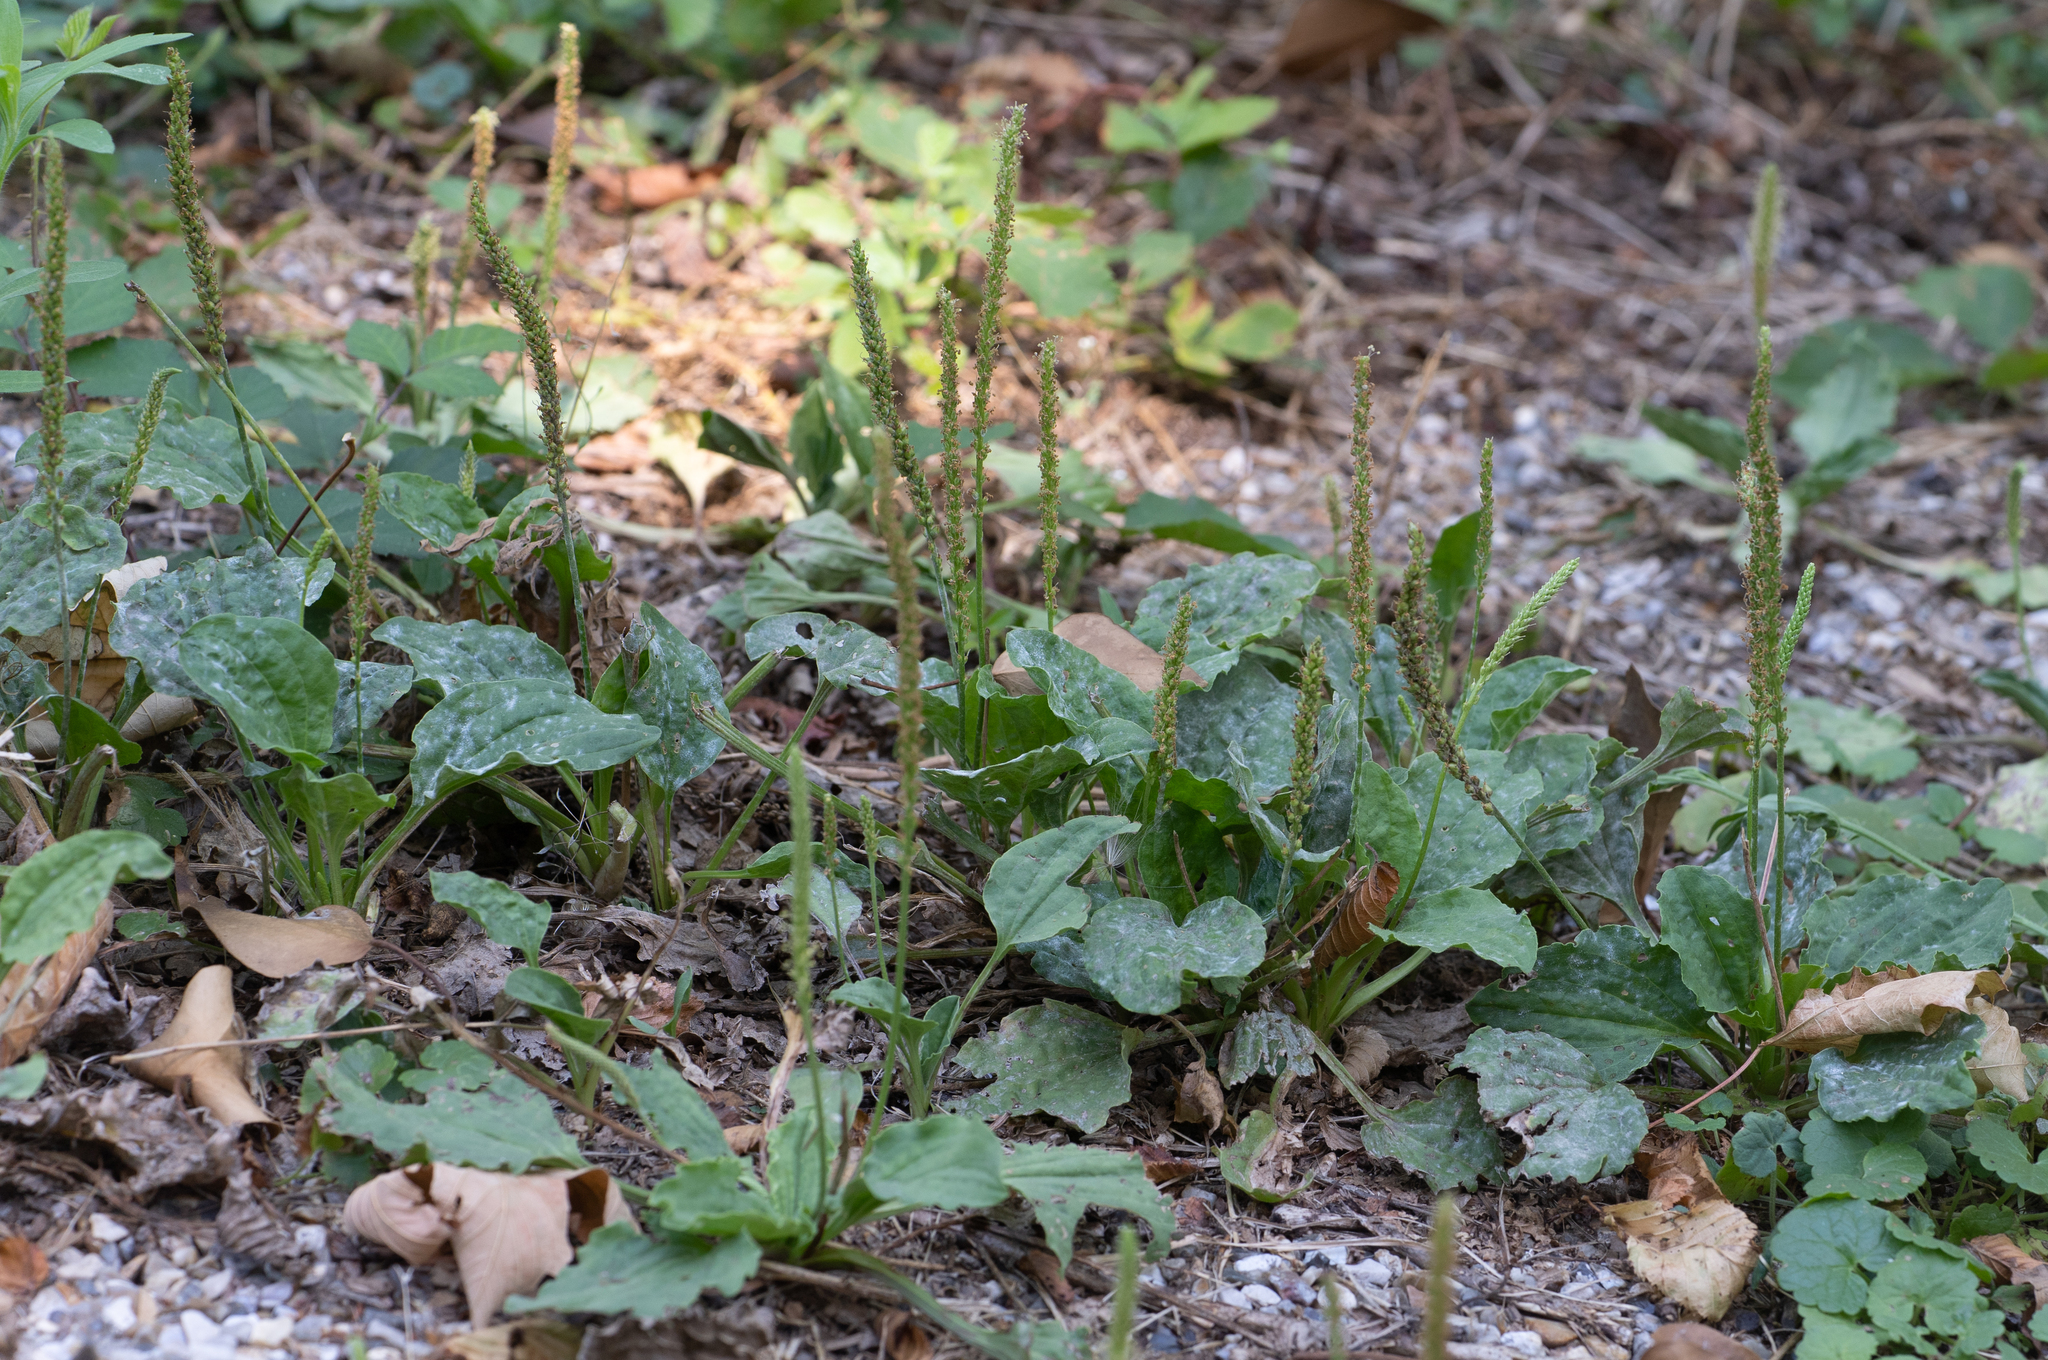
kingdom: Plantae
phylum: Tracheophyta
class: Magnoliopsida
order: Lamiales
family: Plantaginaceae
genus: Plantago
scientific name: Plantago major
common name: Common plantain
